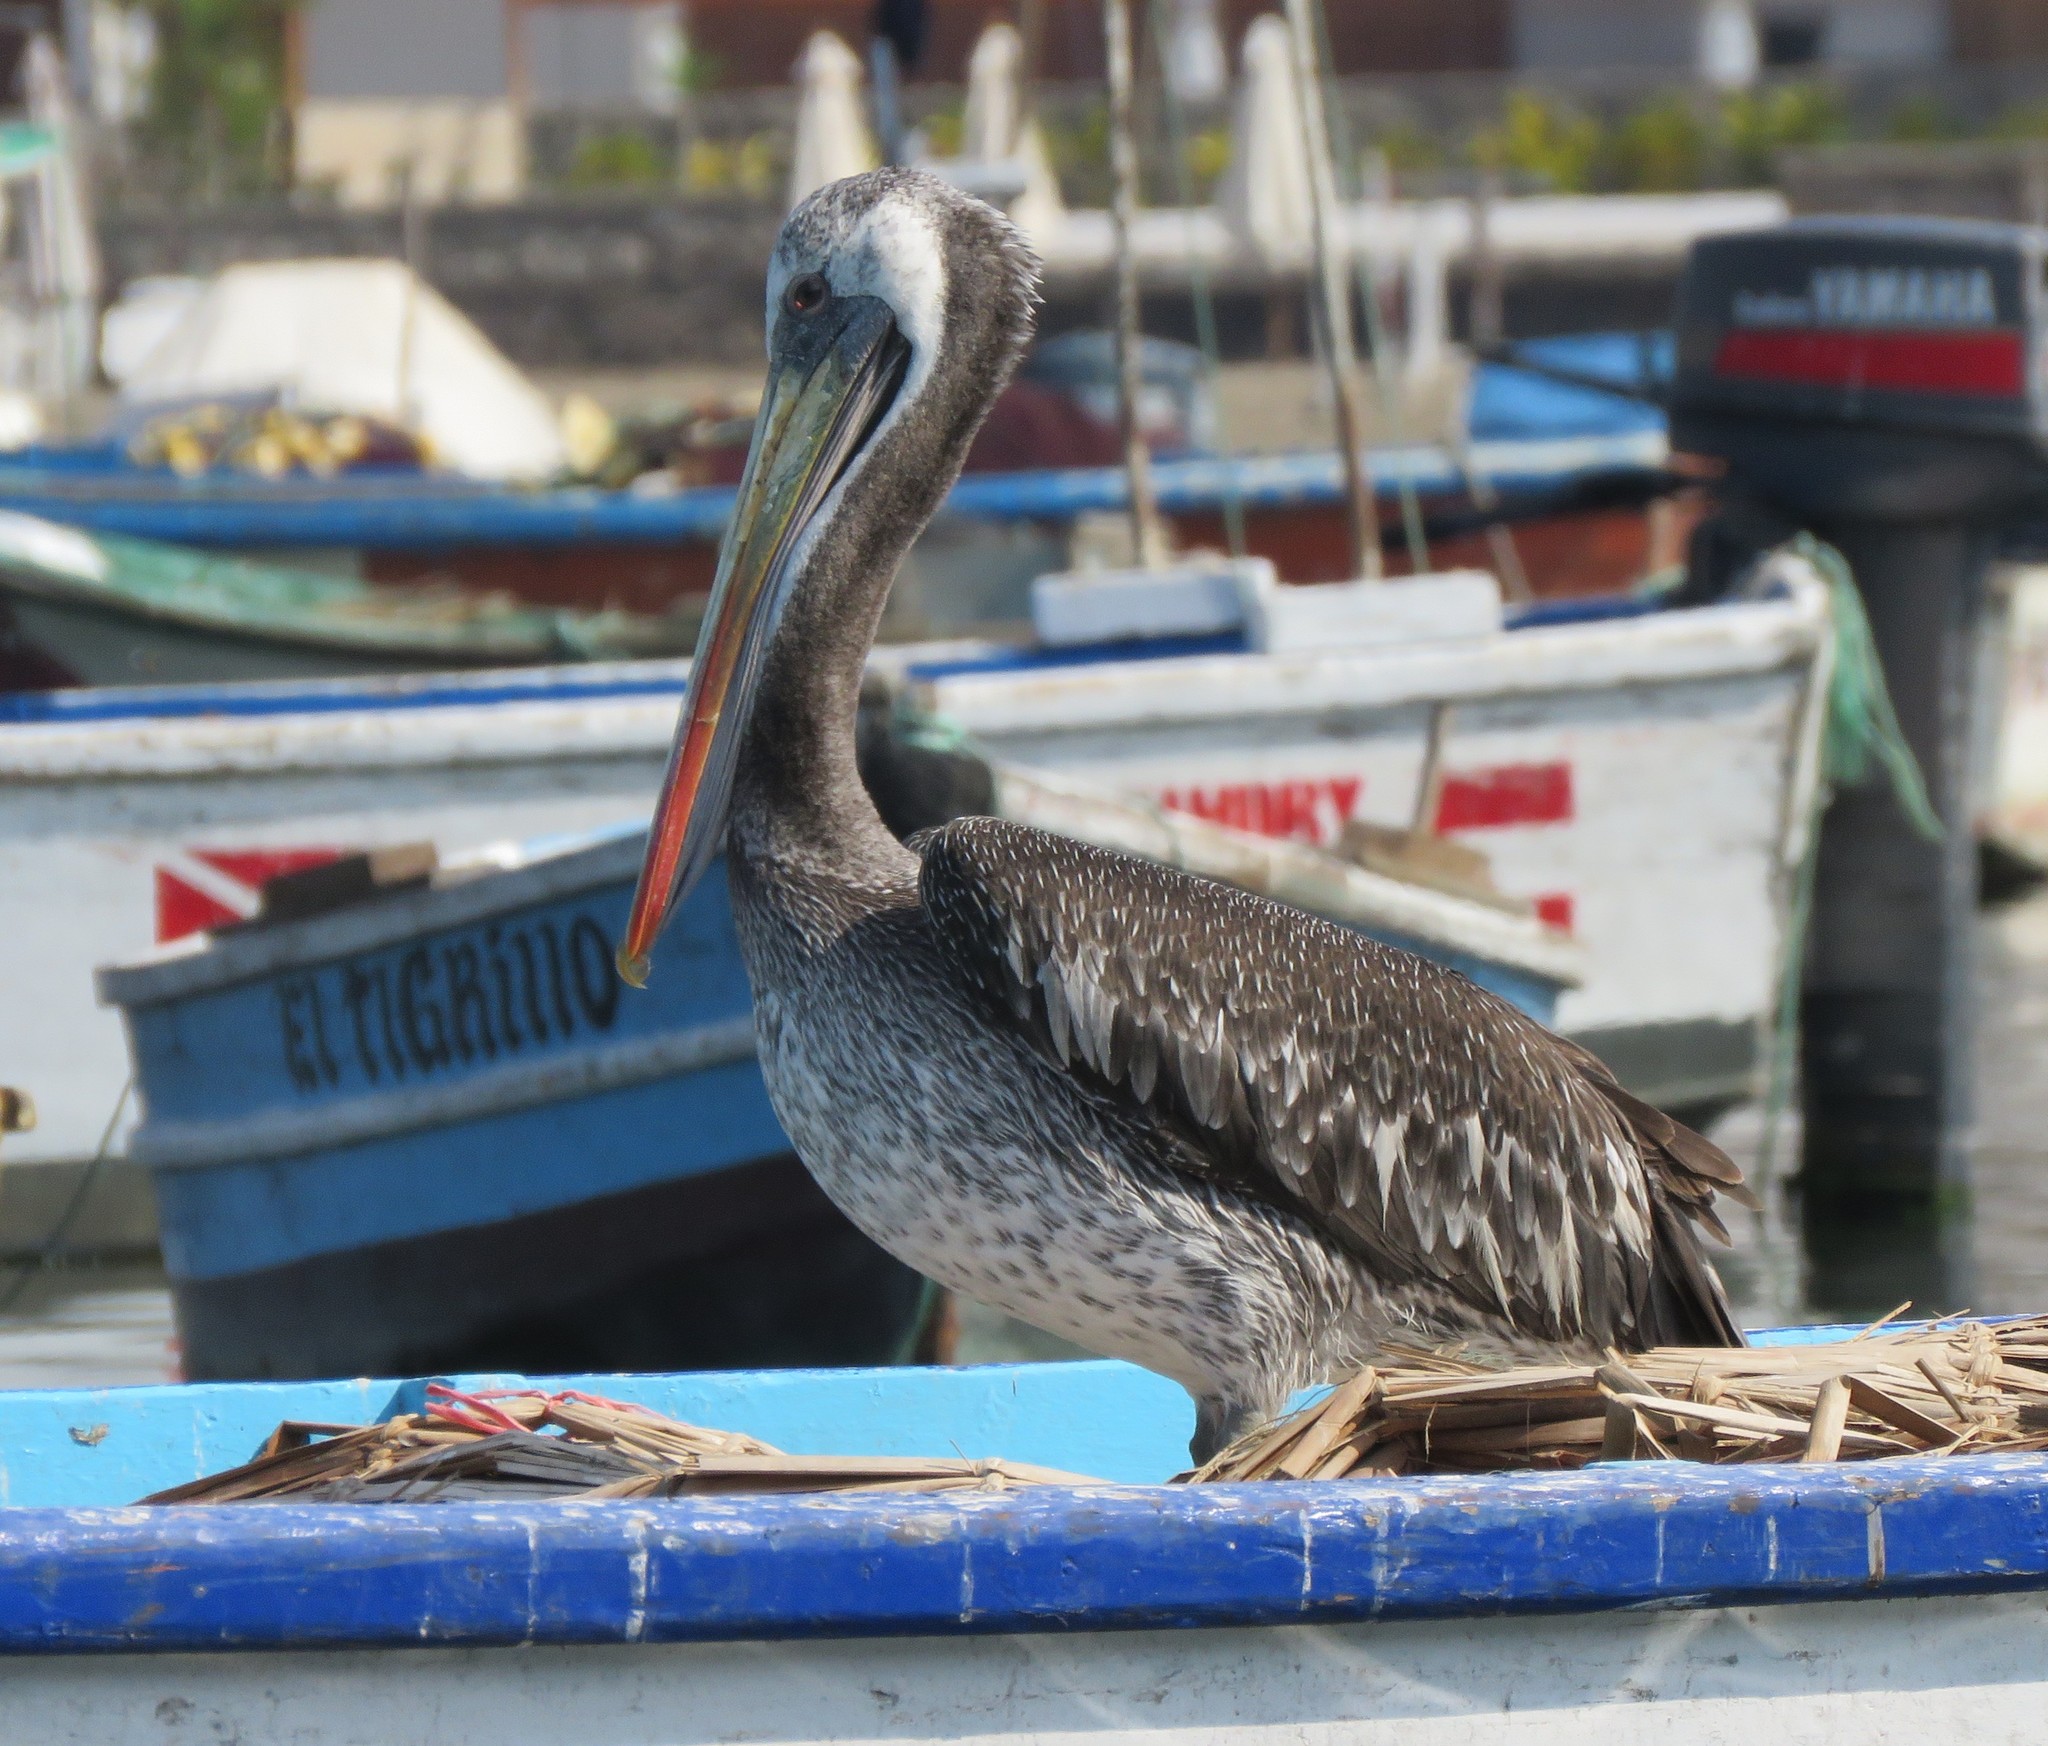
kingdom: Animalia
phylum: Chordata
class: Aves
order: Pelecaniformes
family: Pelecanidae
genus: Pelecanus
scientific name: Pelecanus thagus
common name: Peruvian pelican
